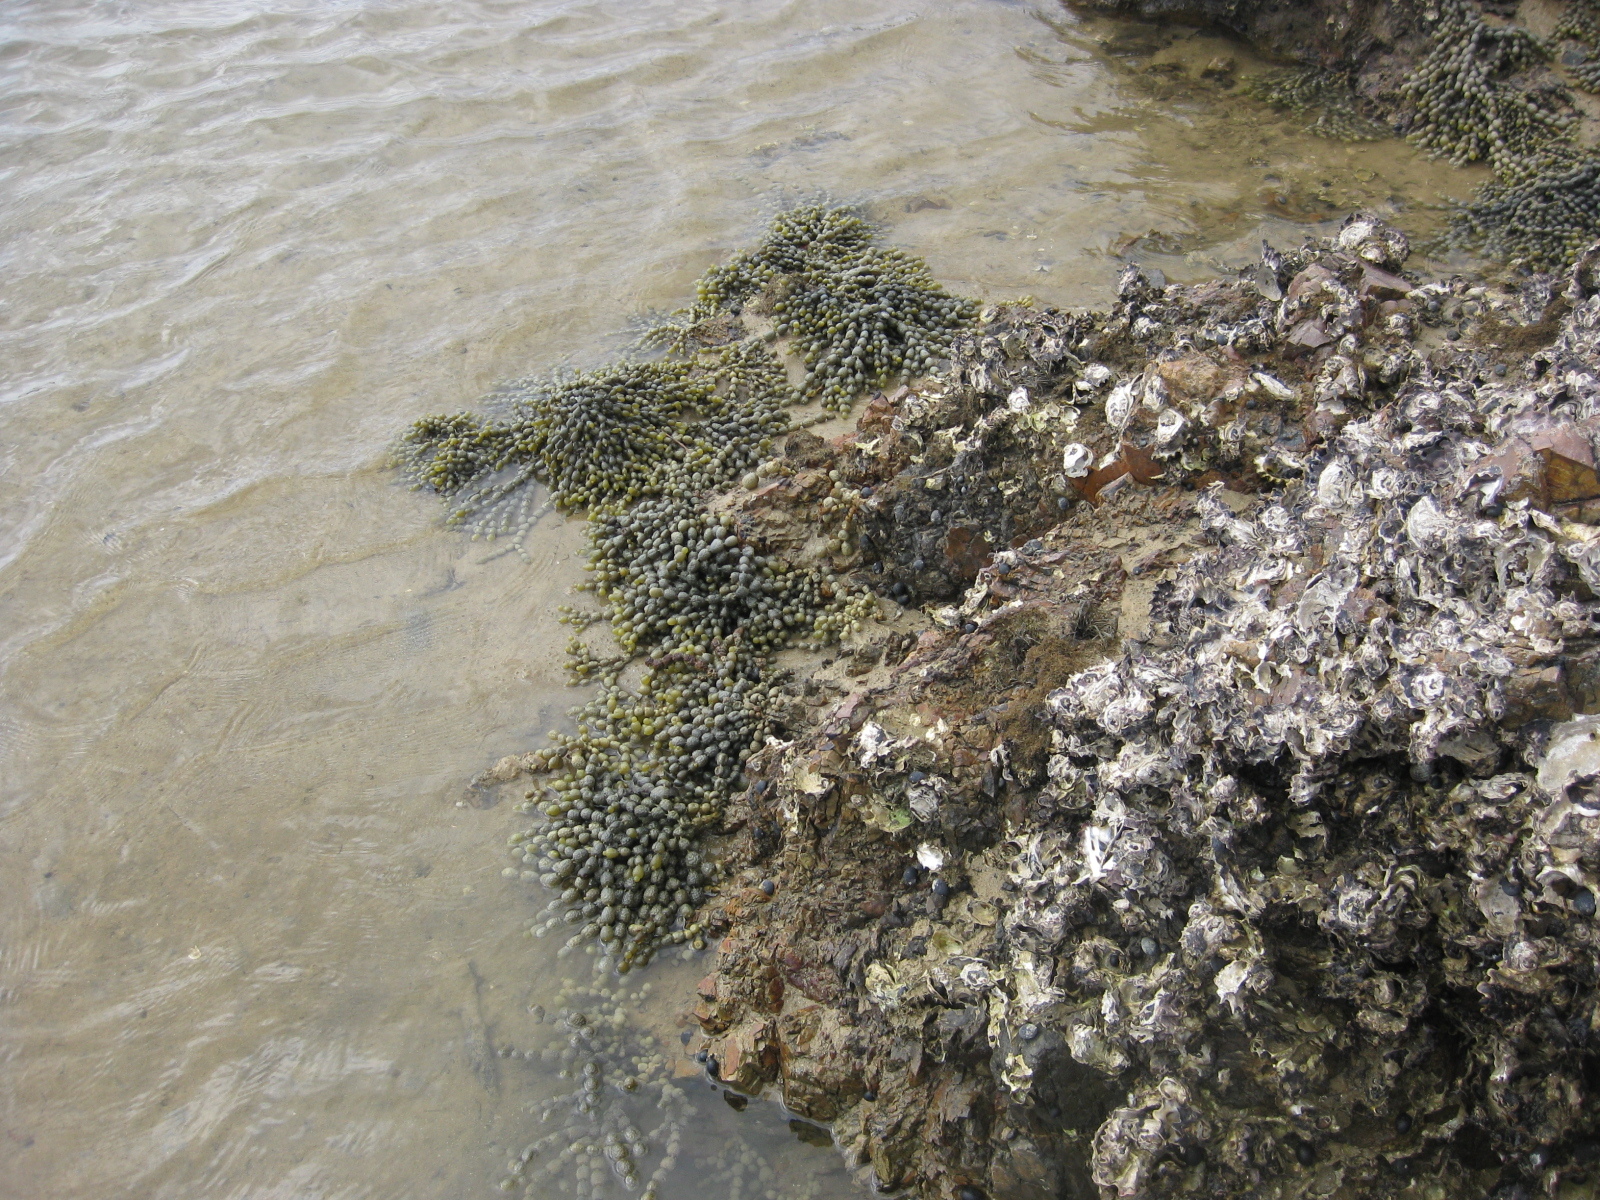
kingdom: Chromista
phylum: Ochrophyta
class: Phaeophyceae
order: Fucales
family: Hormosiraceae
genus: Hormosira
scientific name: Hormosira banksii
